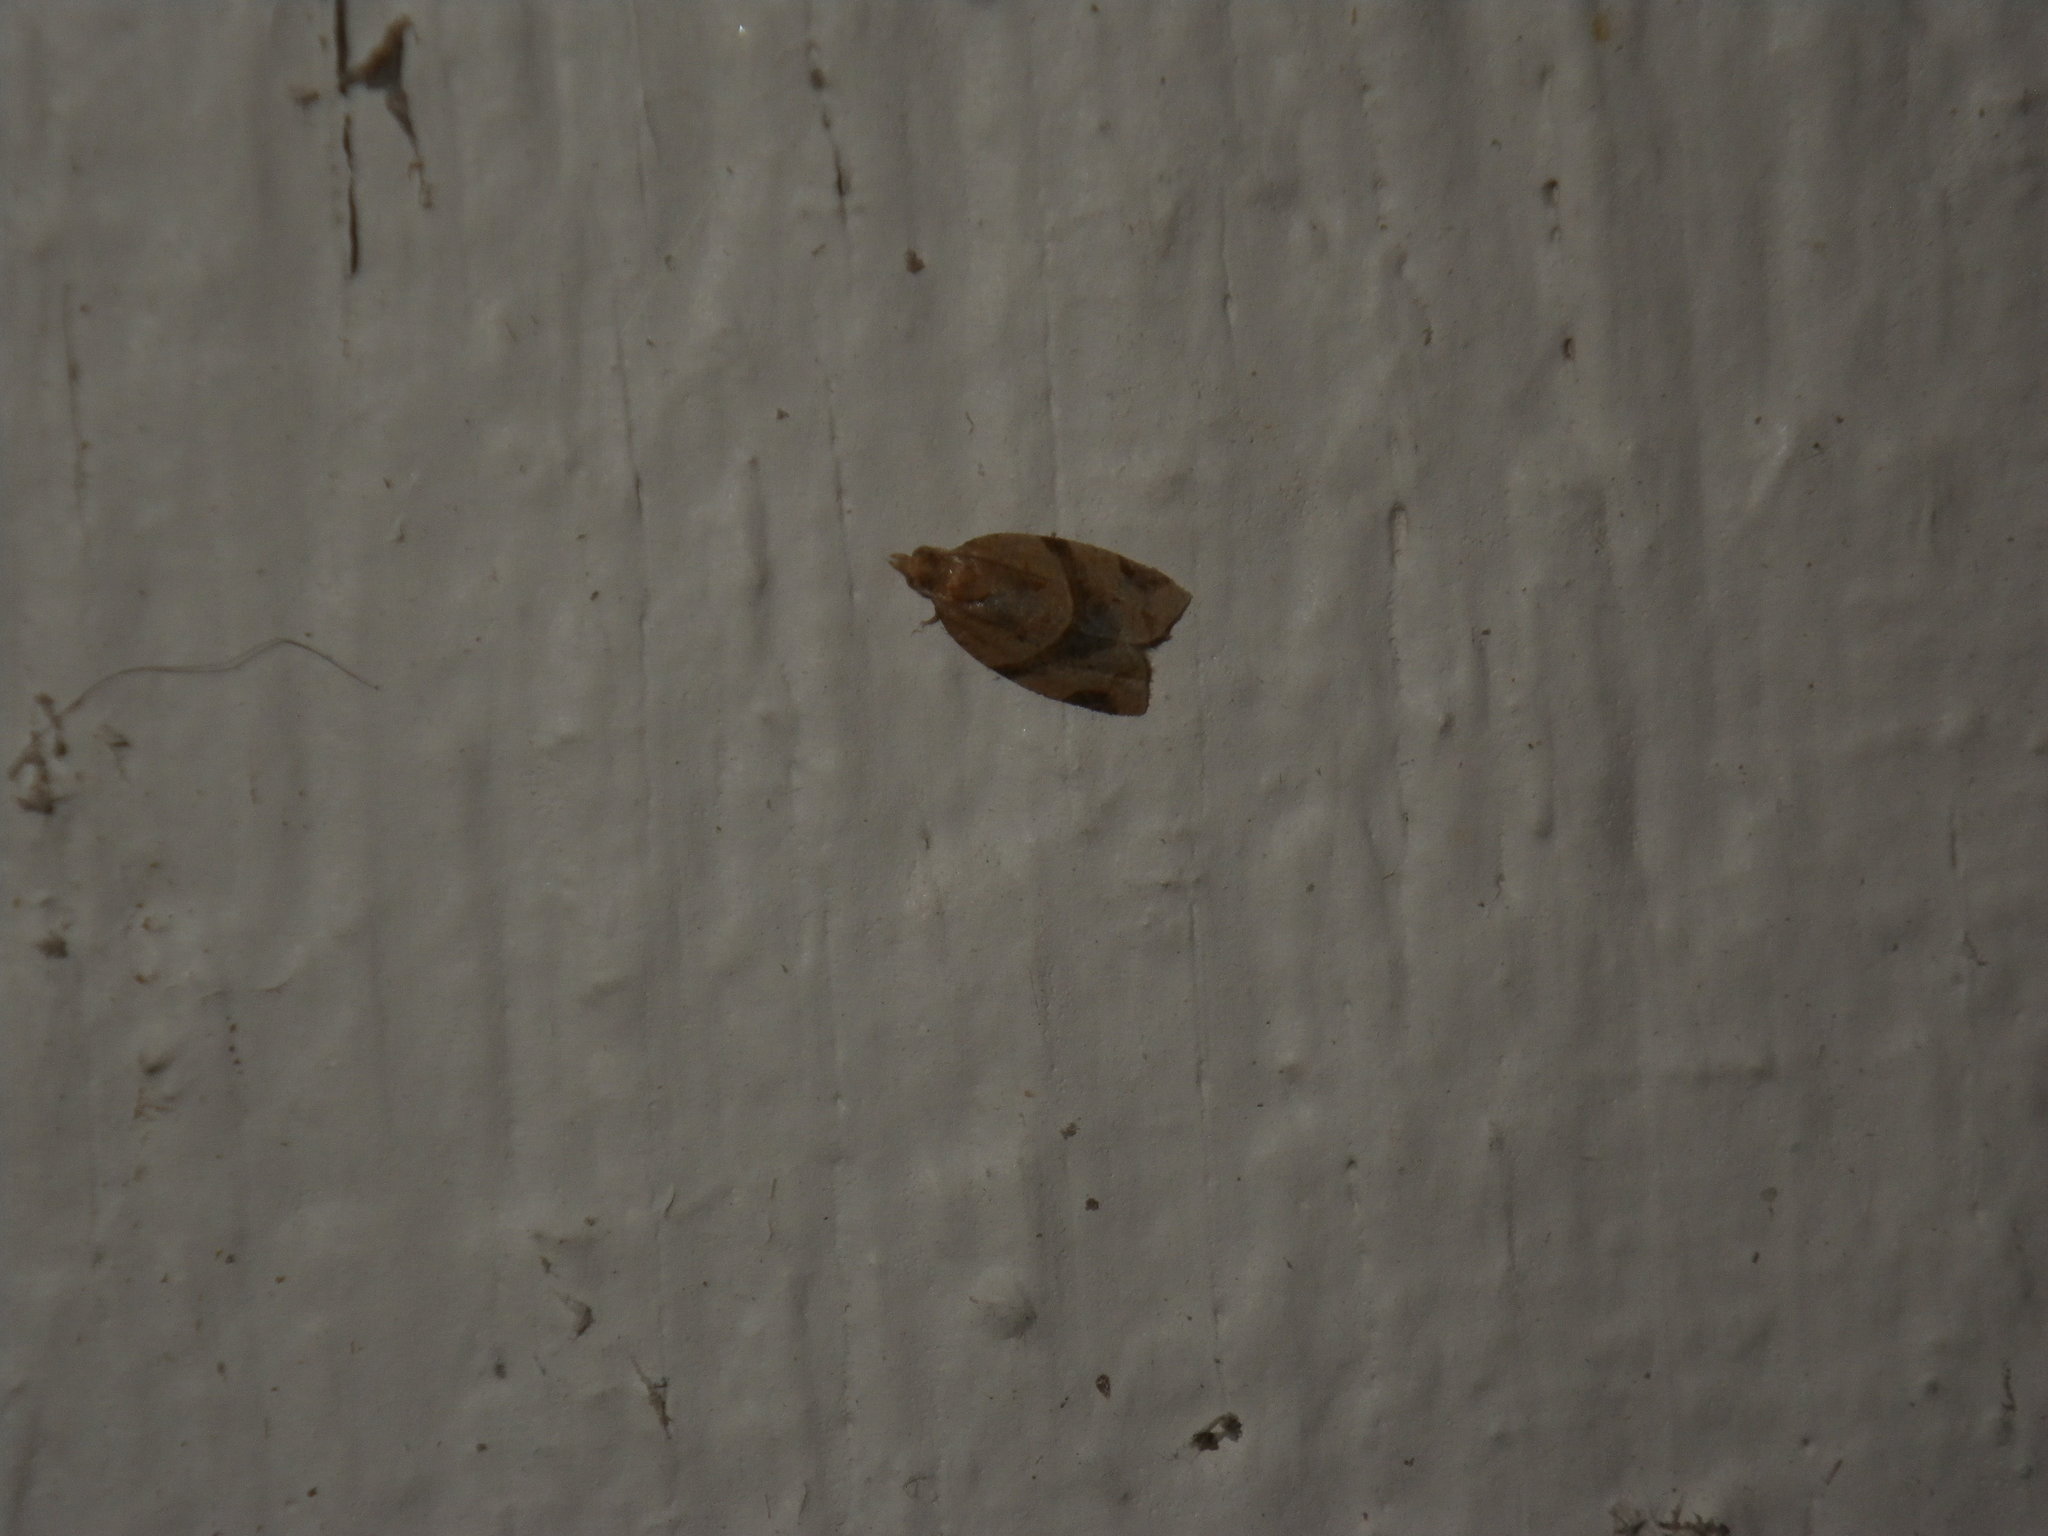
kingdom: Animalia
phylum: Arthropoda
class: Insecta
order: Lepidoptera
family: Tortricidae
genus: Clepsis
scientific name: Clepsis peritana
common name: Garden tortrix
